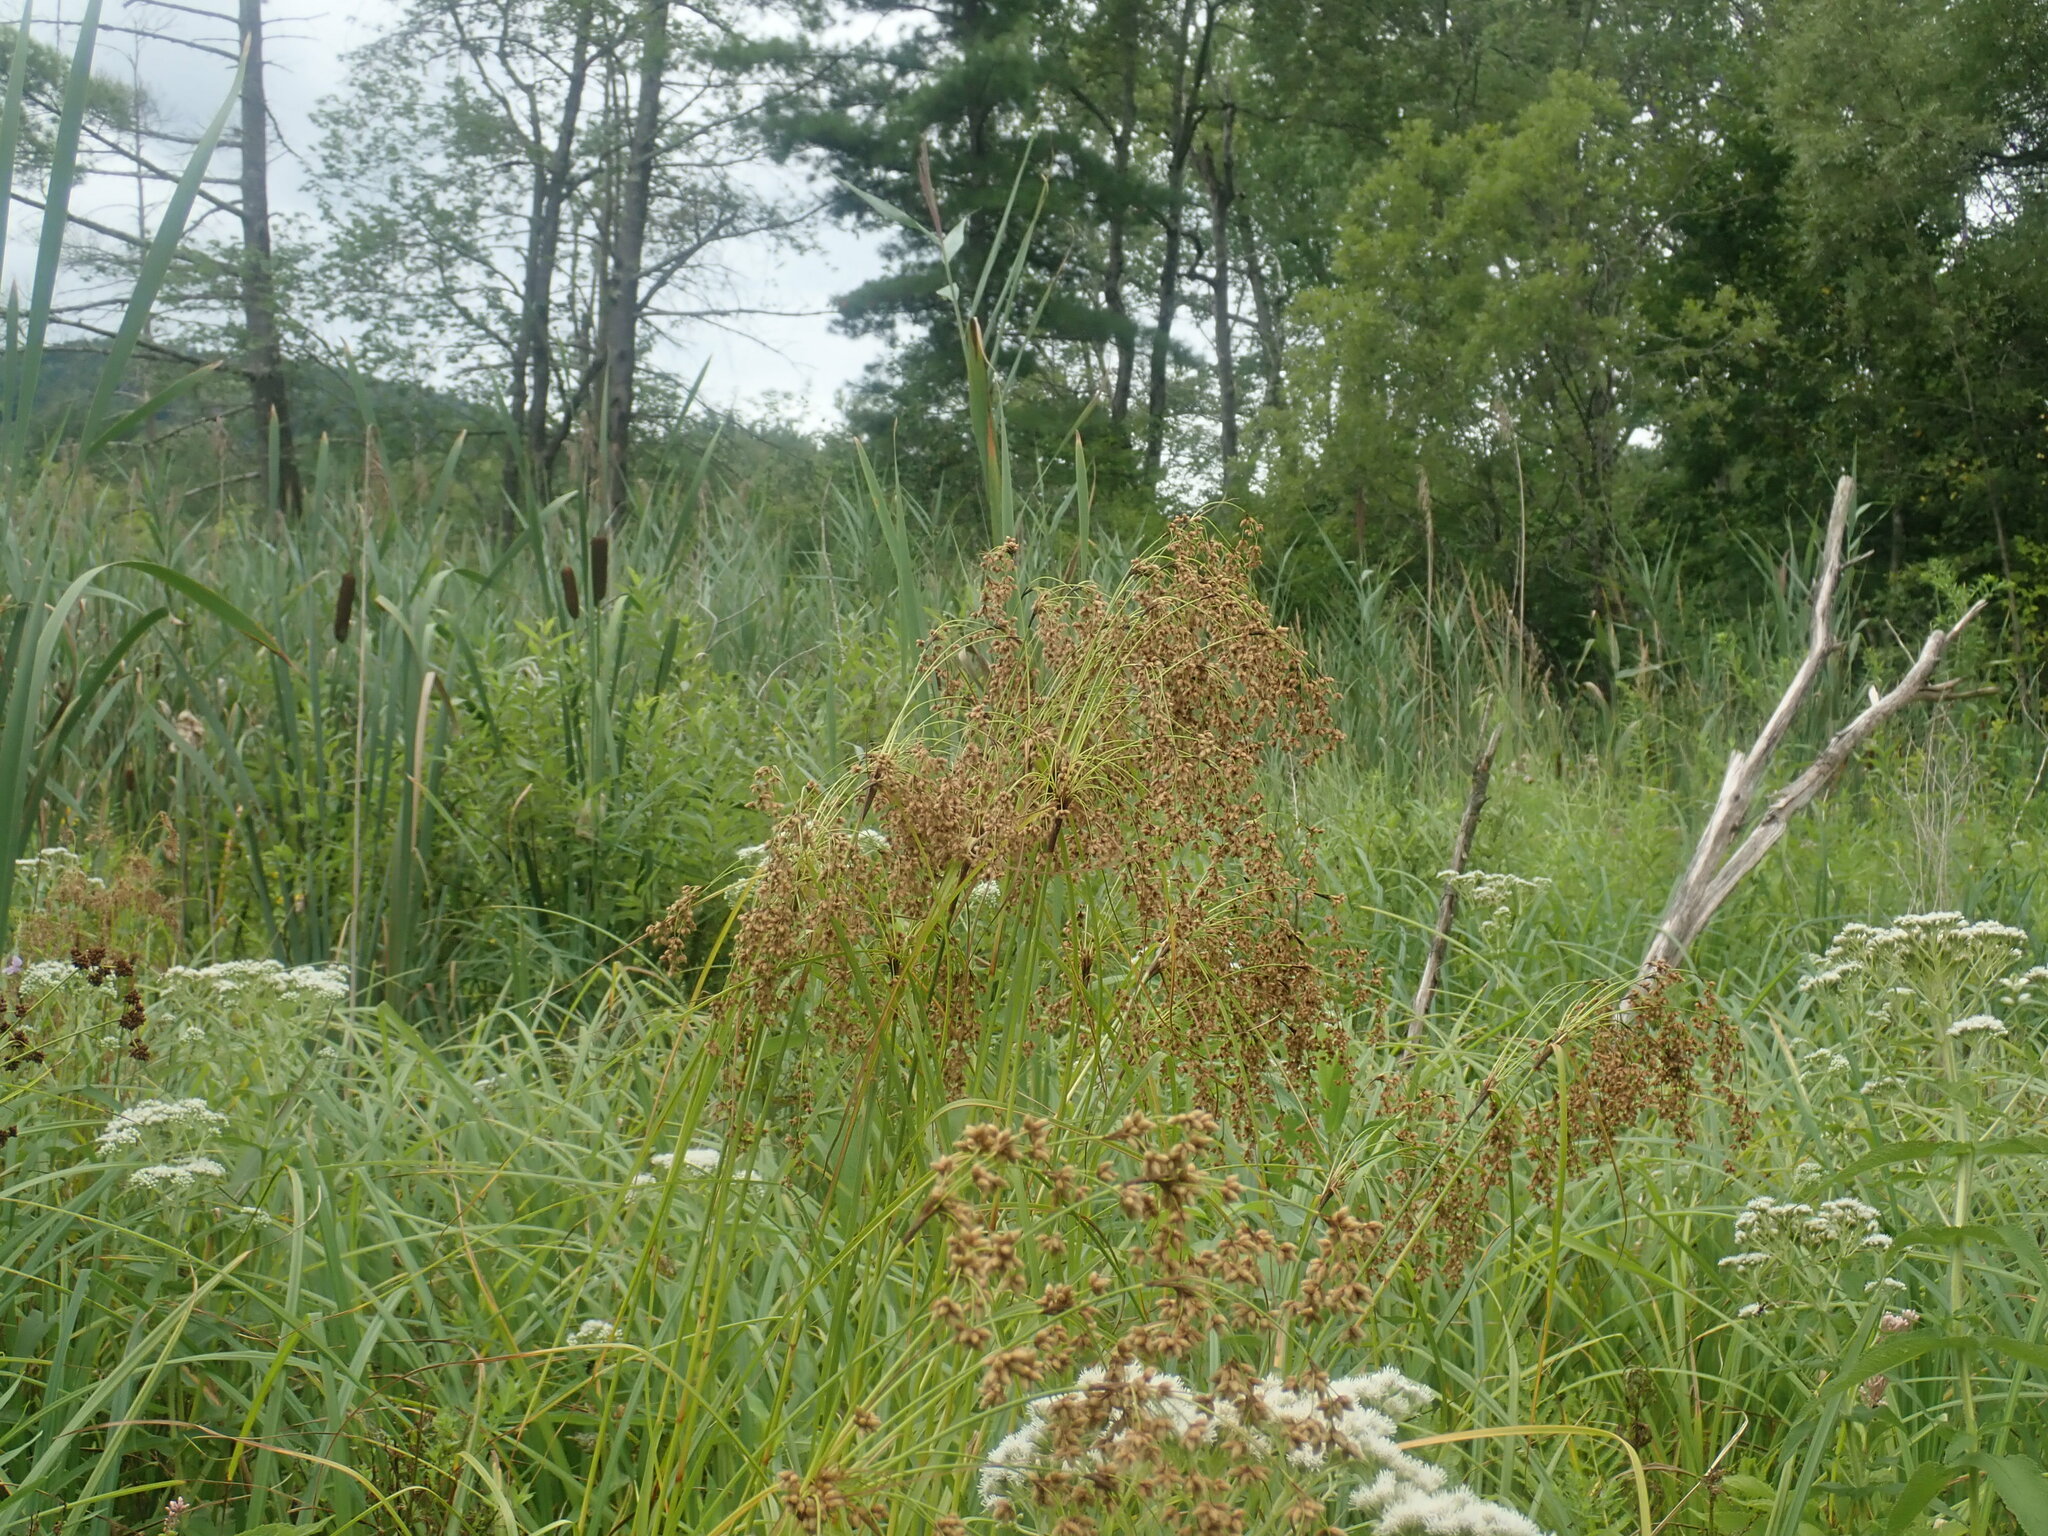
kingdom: Plantae
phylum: Tracheophyta
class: Liliopsida
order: Poales
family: Cyperaceae
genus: Scirpus
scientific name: Scirpus
